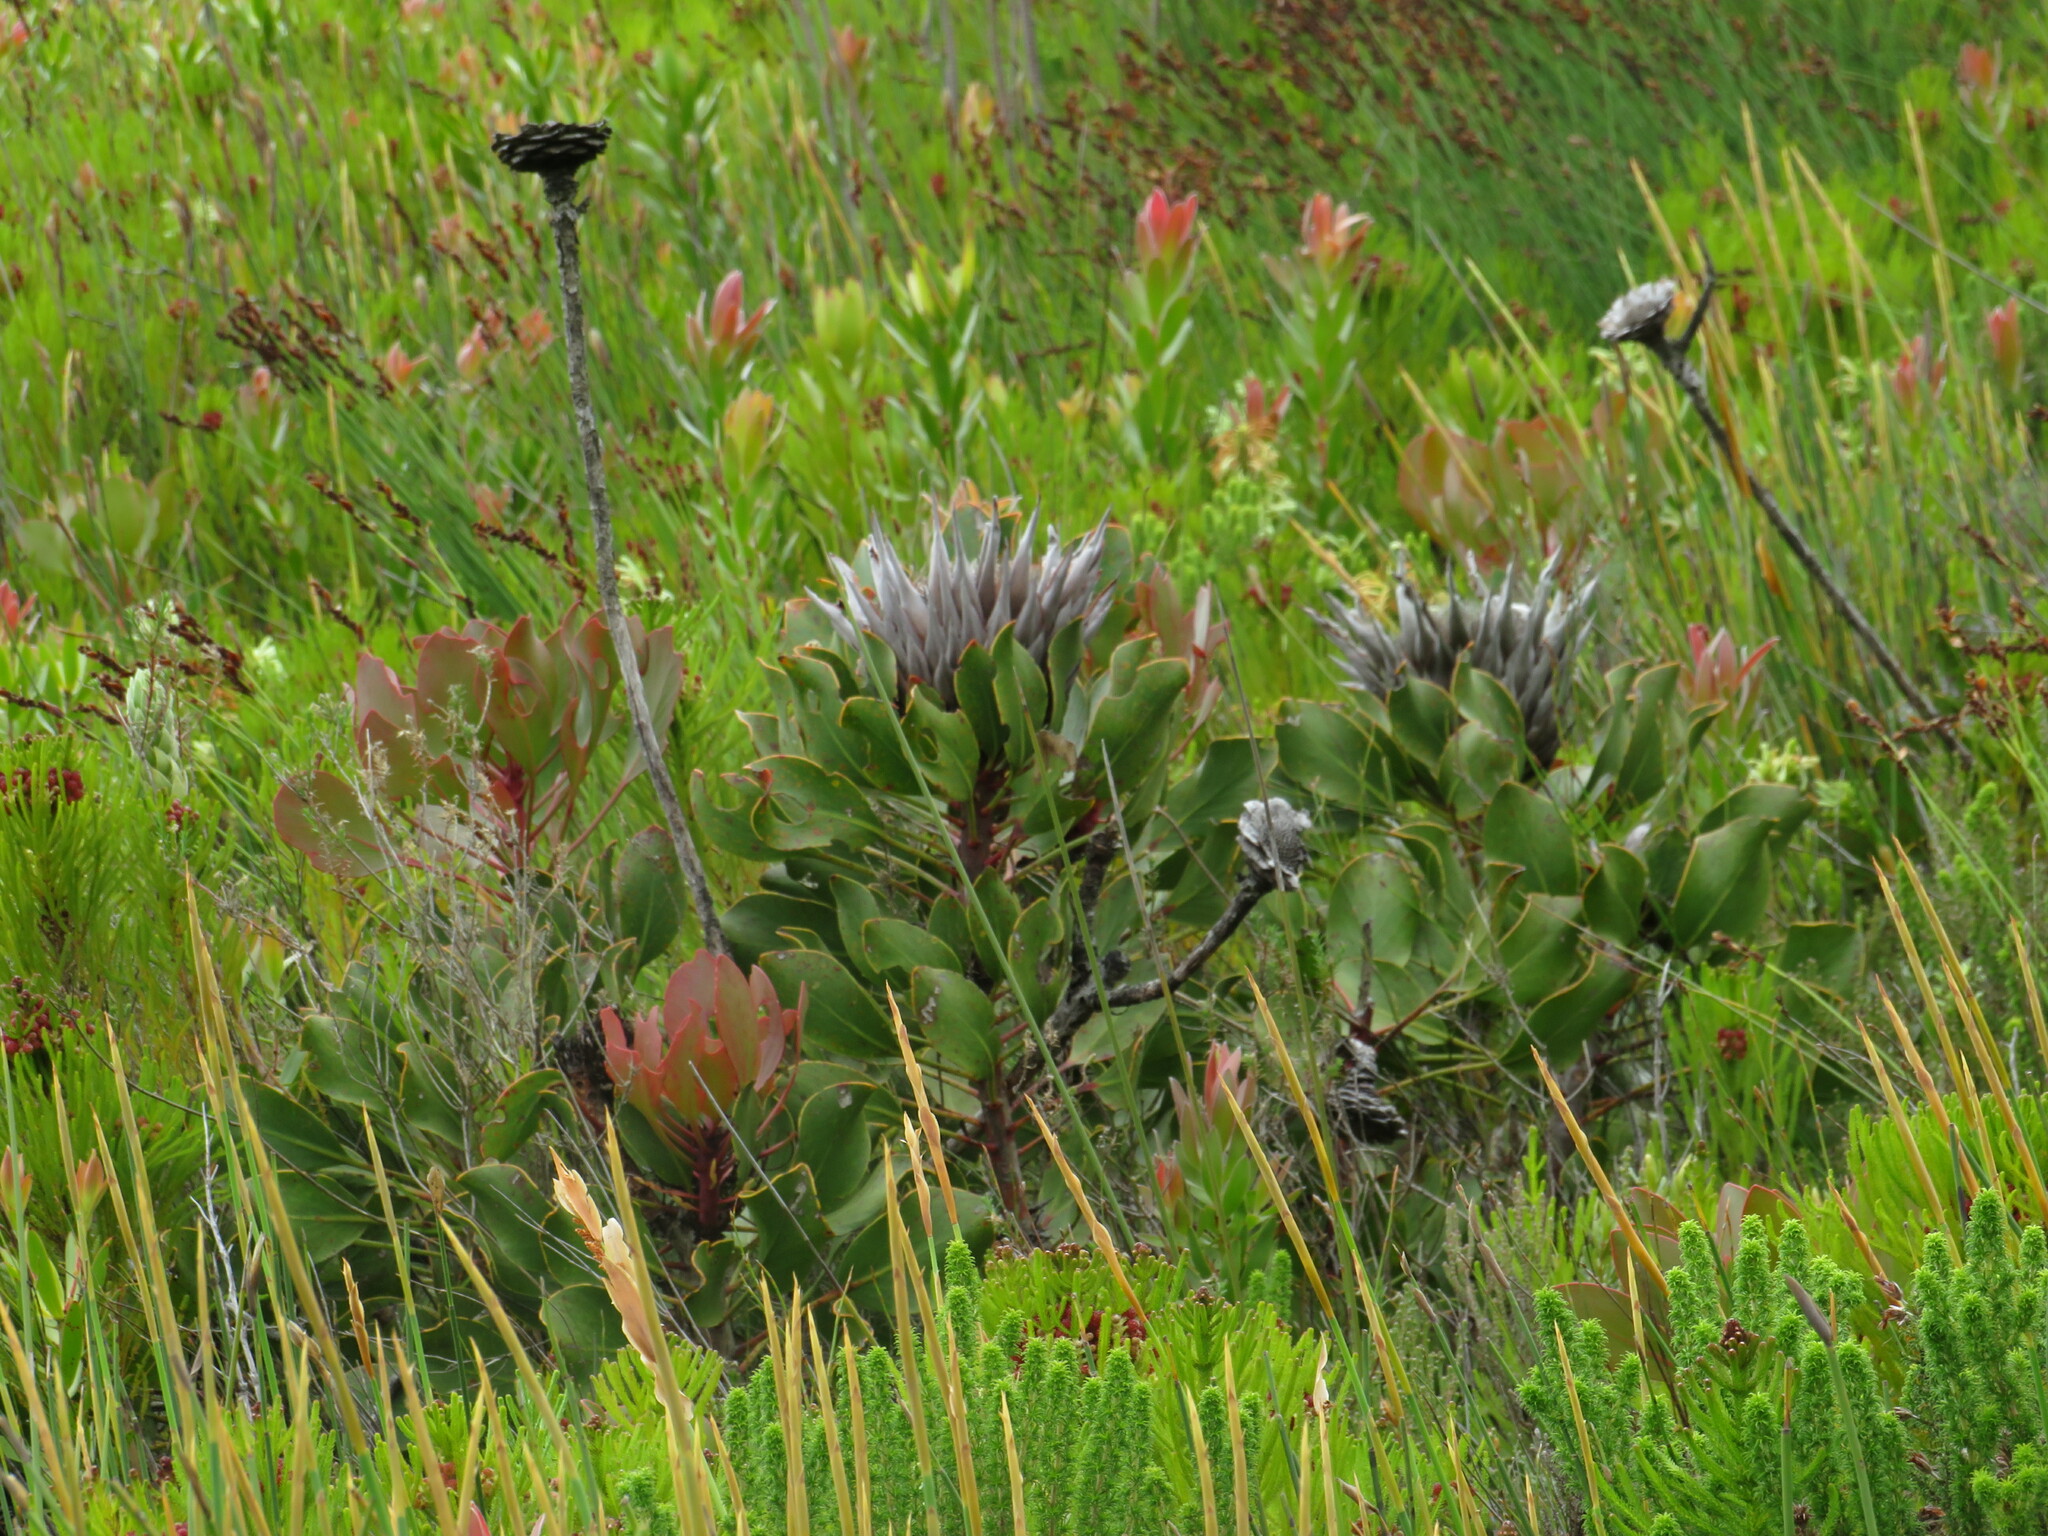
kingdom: Plantae
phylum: Tracheophyta
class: Magnoliopsida
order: Proteales
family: Proteaceae
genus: Protea
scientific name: Protea cynaroides
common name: King protea
